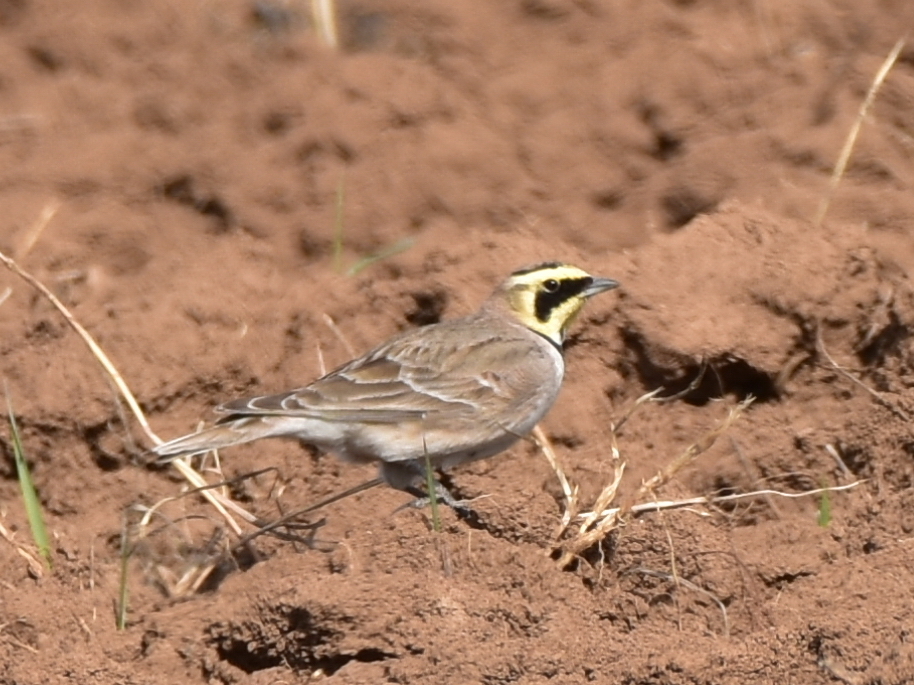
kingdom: Animalia
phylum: Chordata
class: Aves
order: Passeriformes
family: Alaudidae
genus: Eremophila
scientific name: Eremophila alpestris
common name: Horned lark
